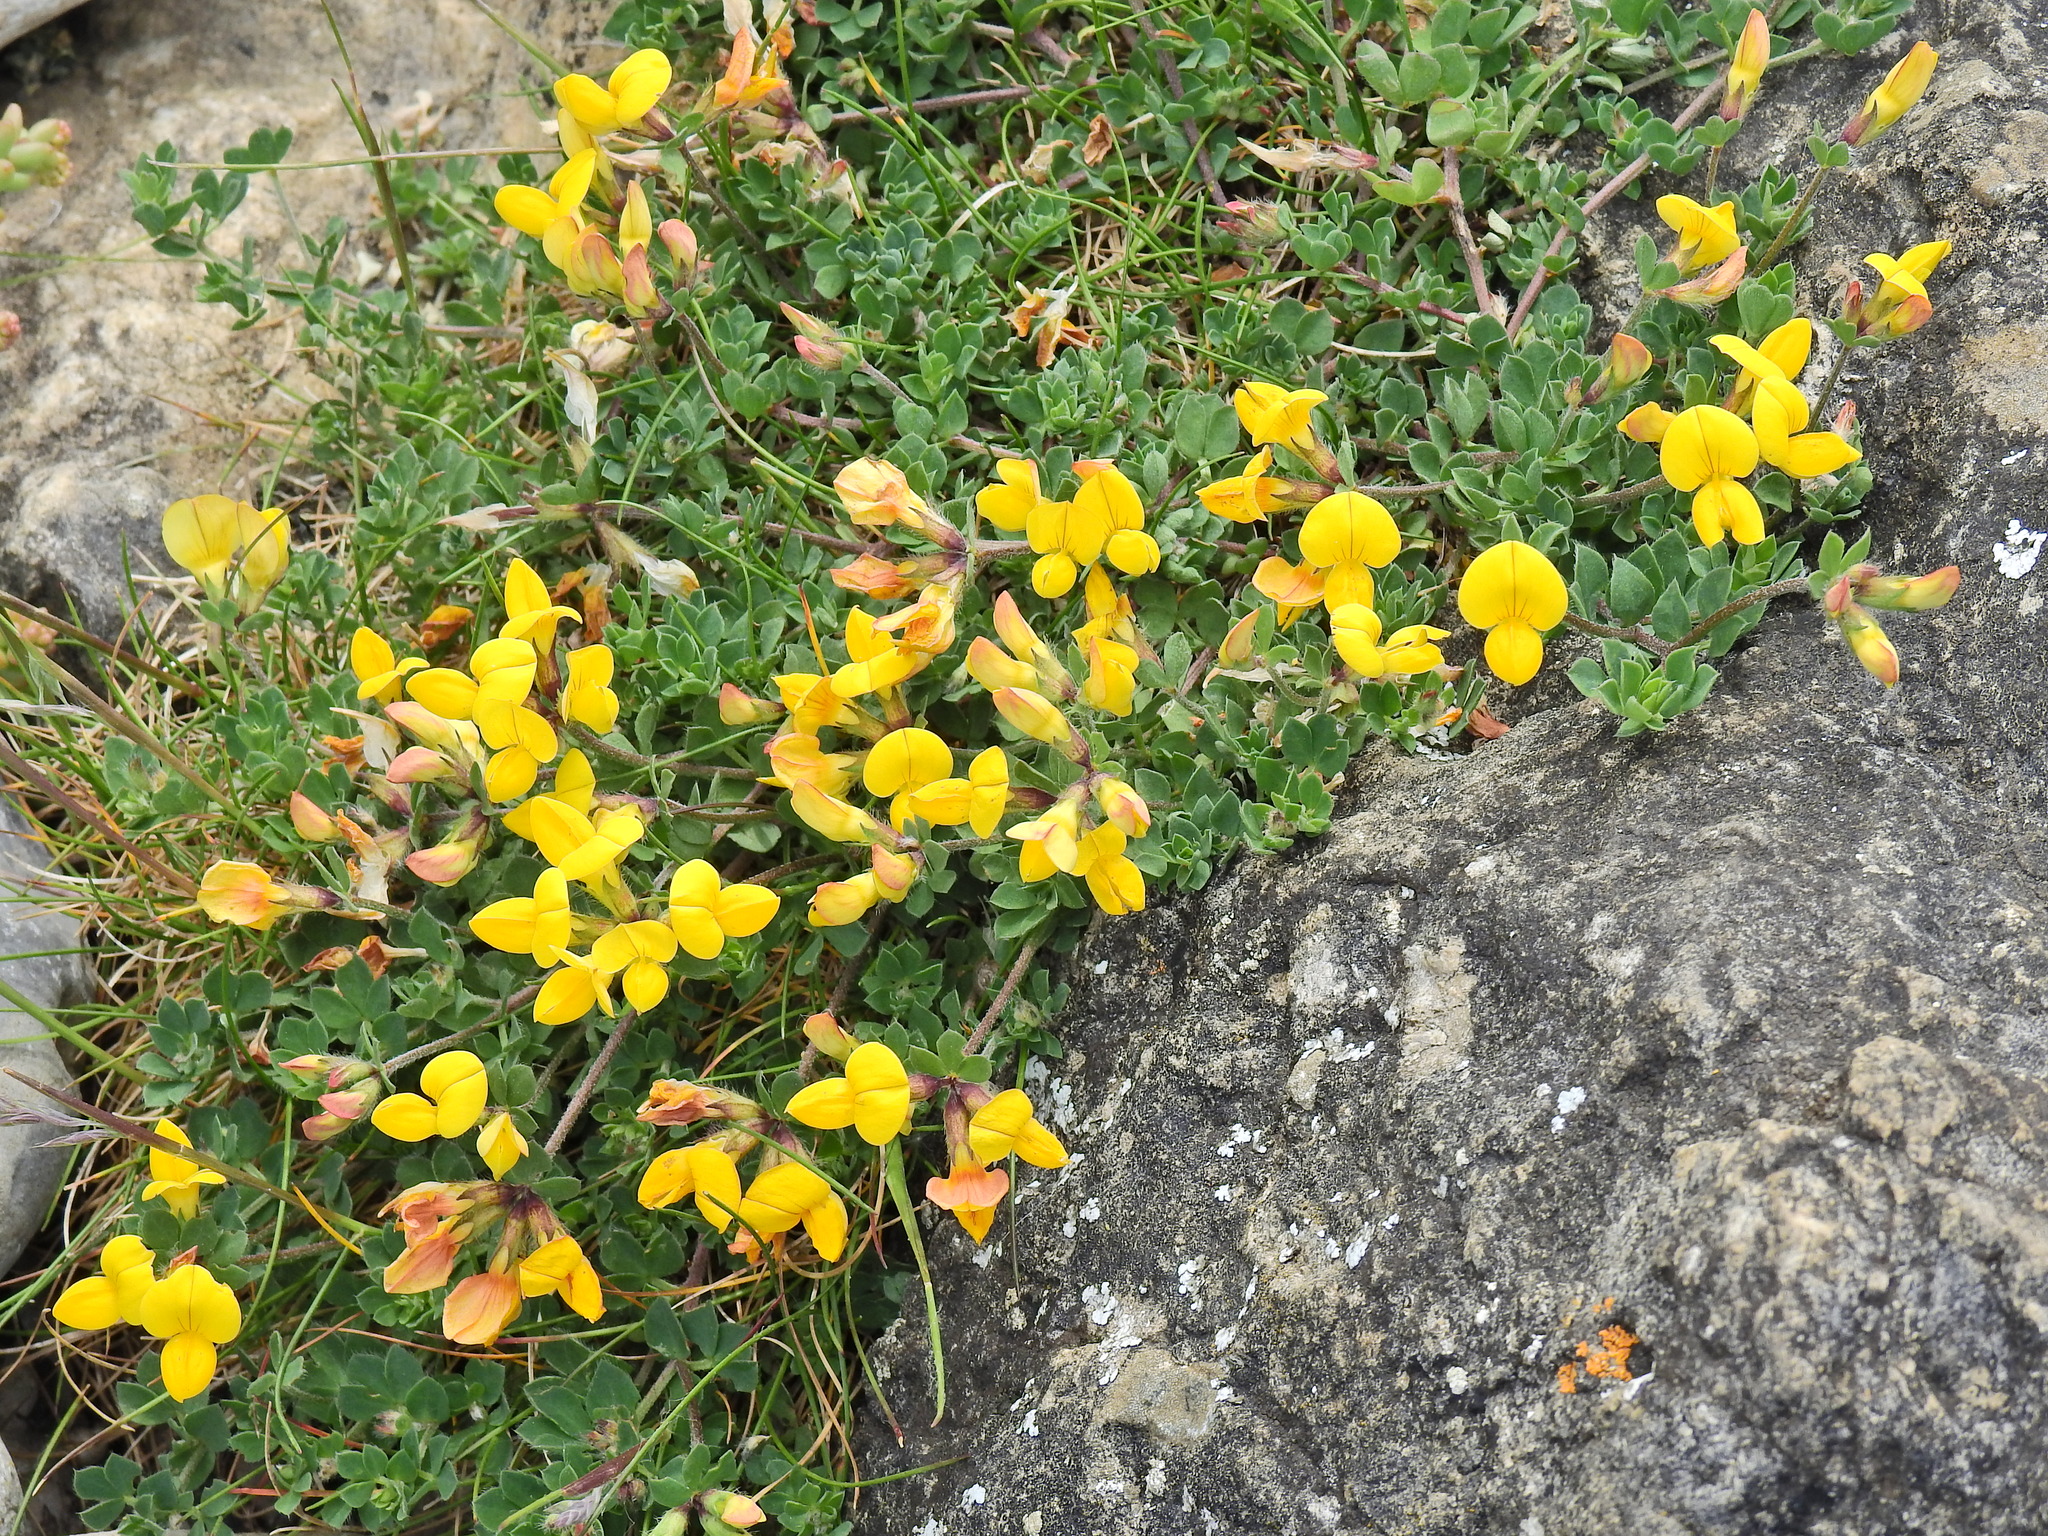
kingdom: Plantae
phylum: Tracheophyta
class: Magnoliopsida
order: Fabales
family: Fabaceae
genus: Lotus
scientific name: Lotus corniculatus
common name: Common bird's-foot-trefoil
